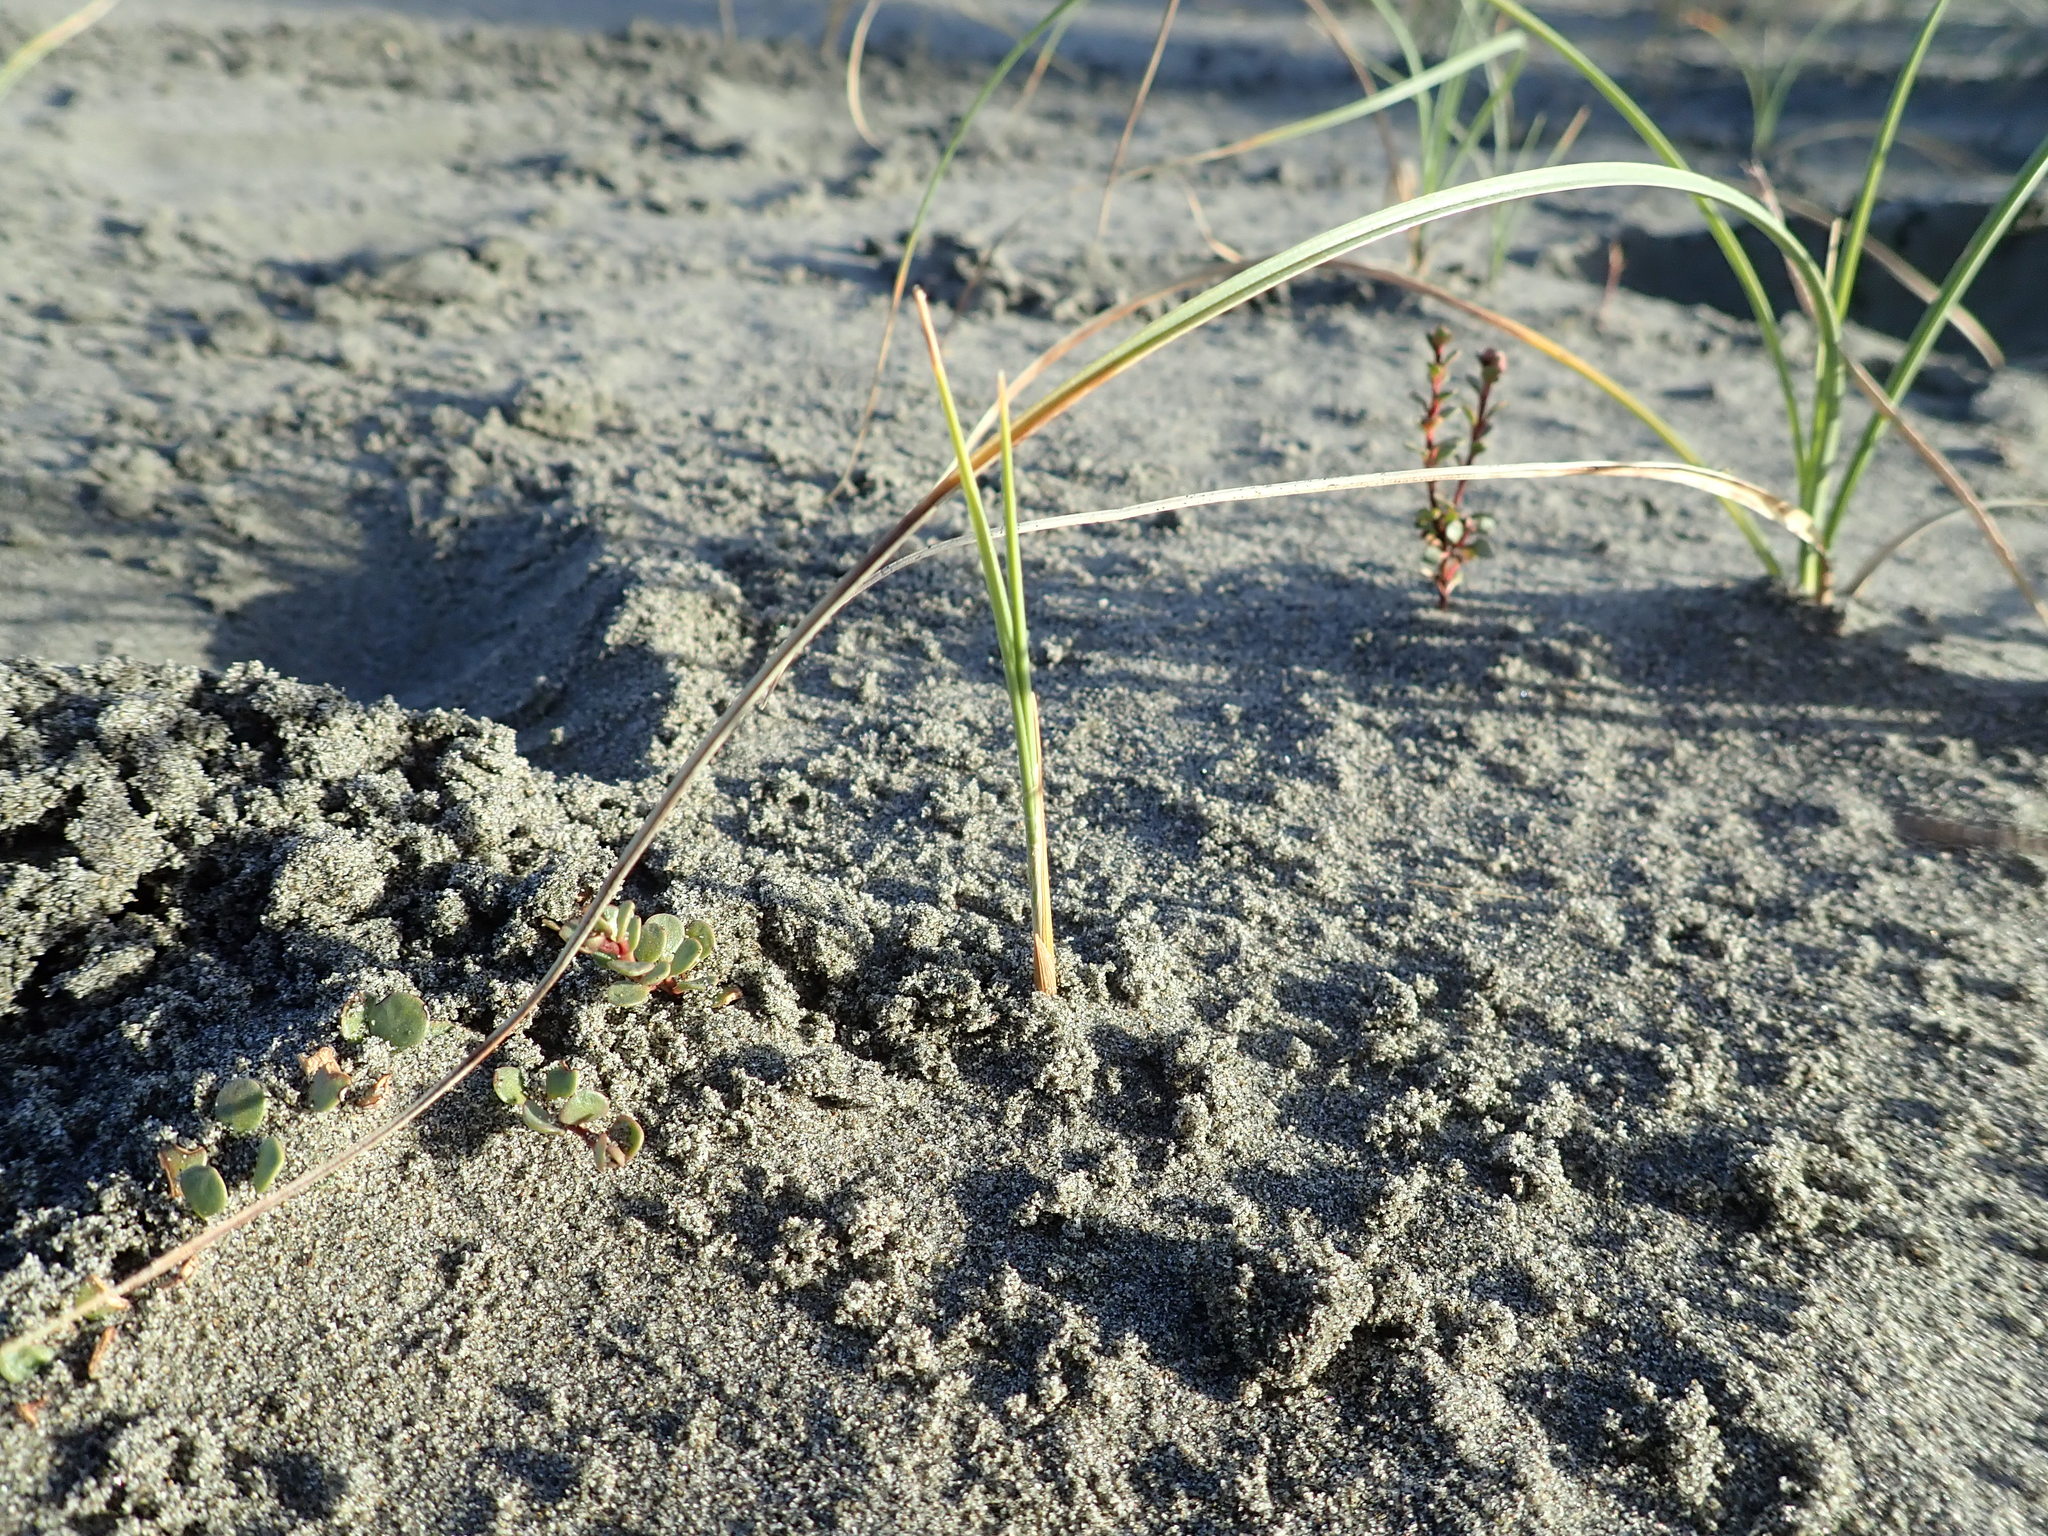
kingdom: Plantae
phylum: Tracheophyta
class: Magnoliopsida
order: Ericales
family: Primulaceae
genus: Samolus
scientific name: Samolus repens
